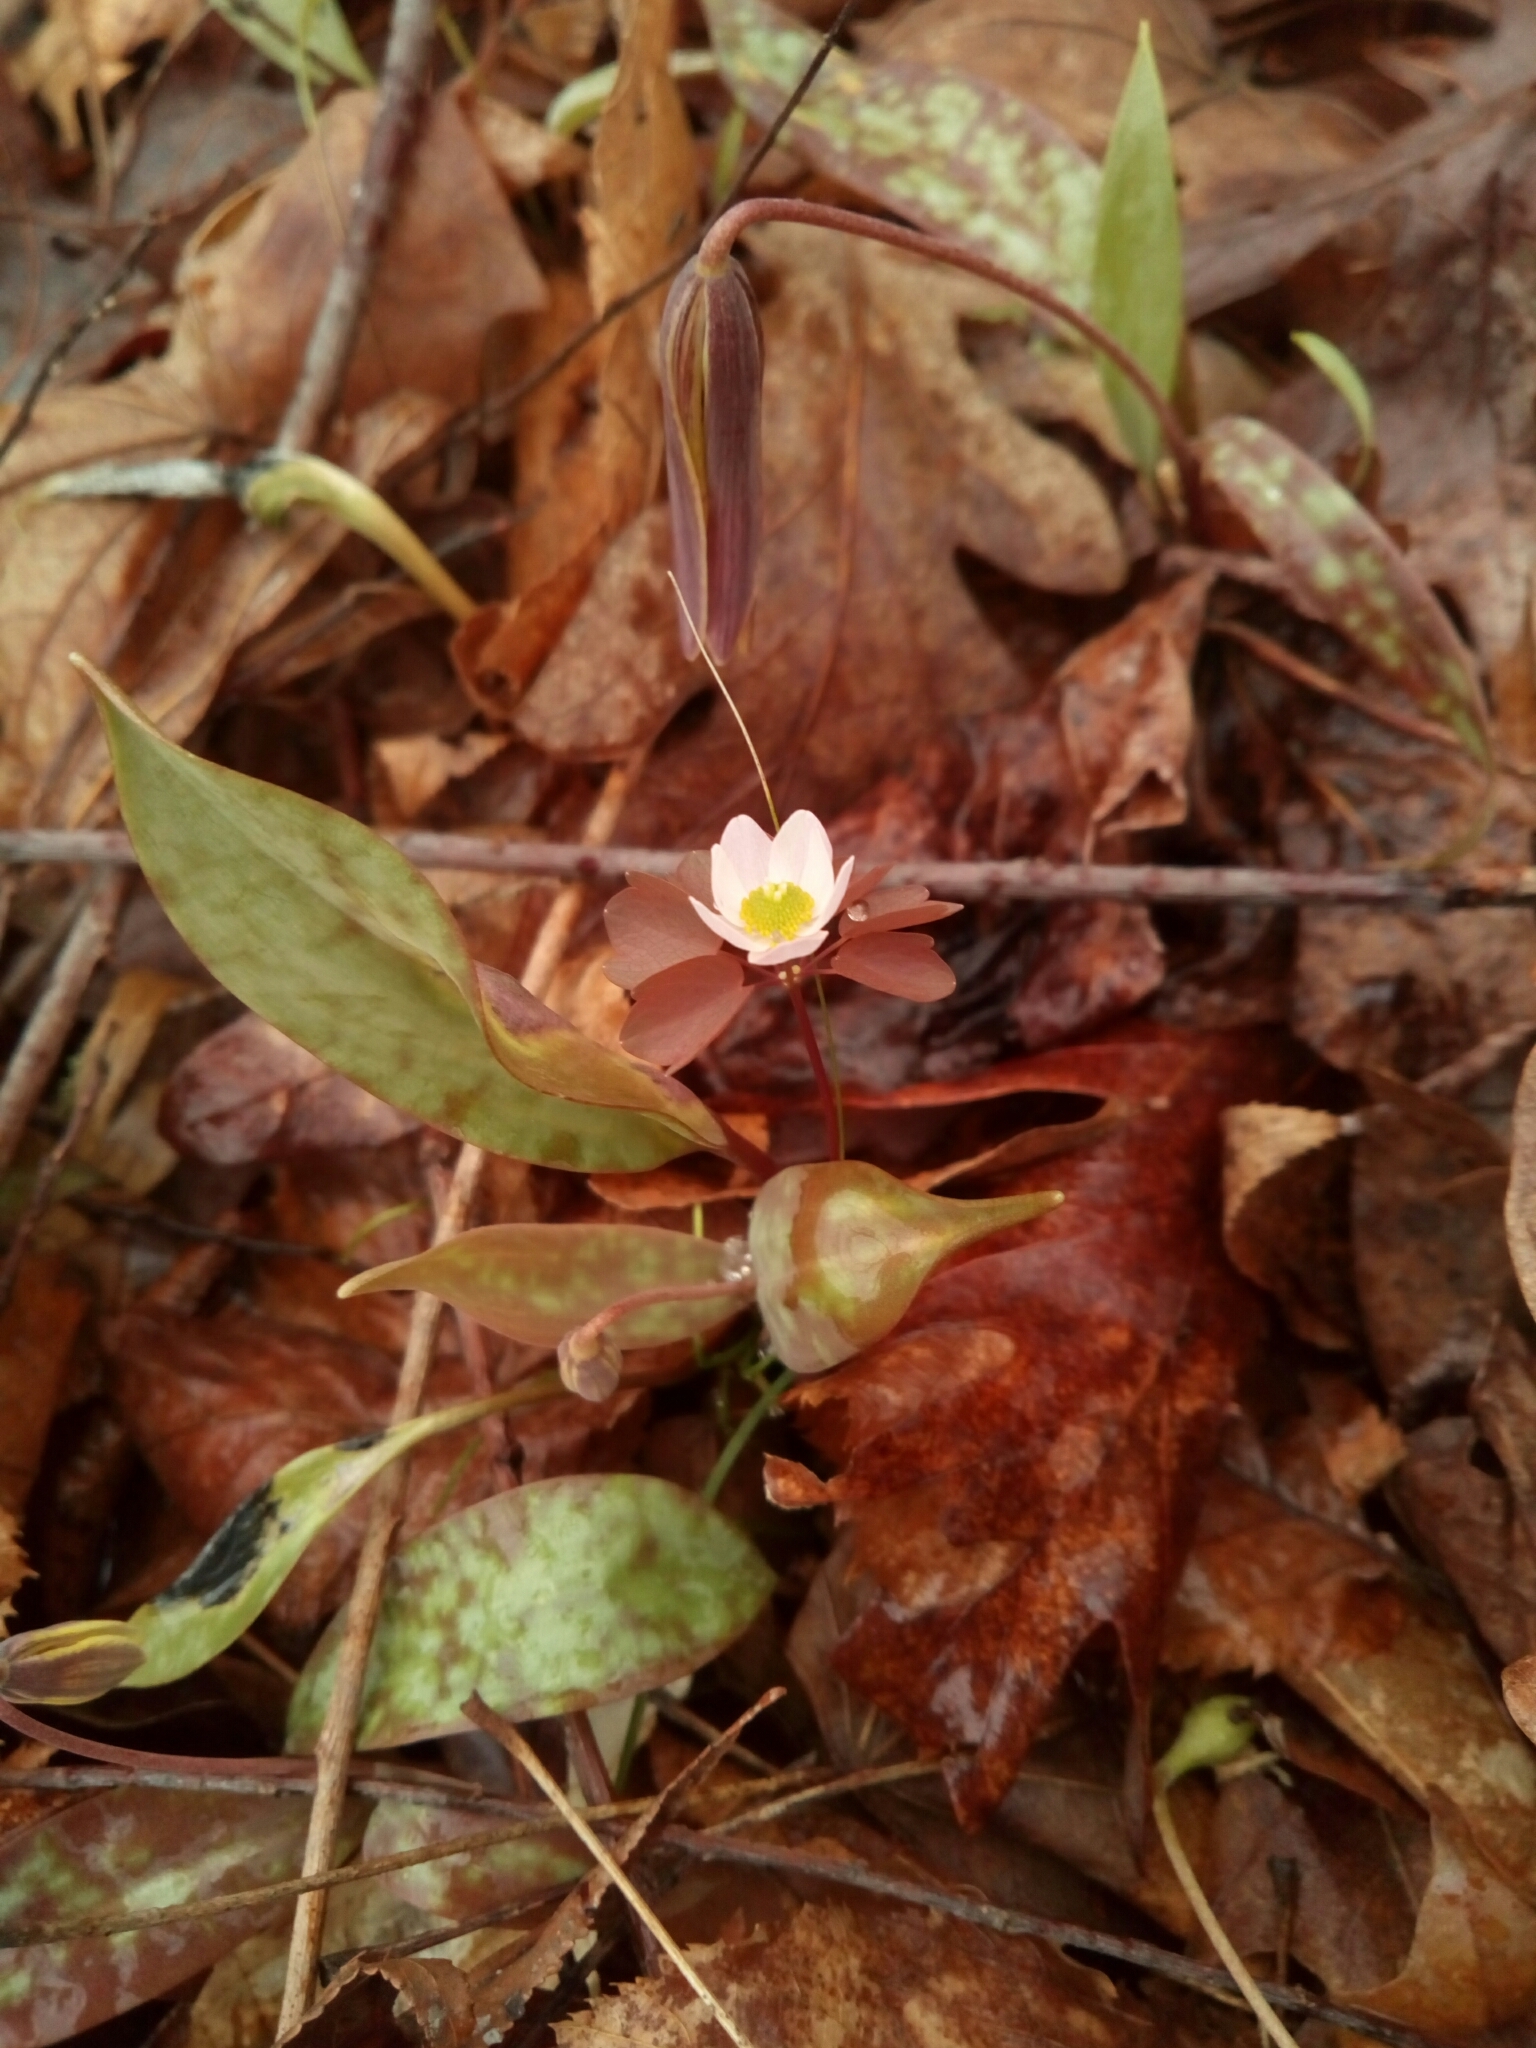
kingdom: Plantae
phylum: Tracheophyta
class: Magnoliopsida
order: Ranunculales
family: Ranunculaceae
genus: Thalictrum
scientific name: Thalictrum thalictroides
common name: Rue-anemone
